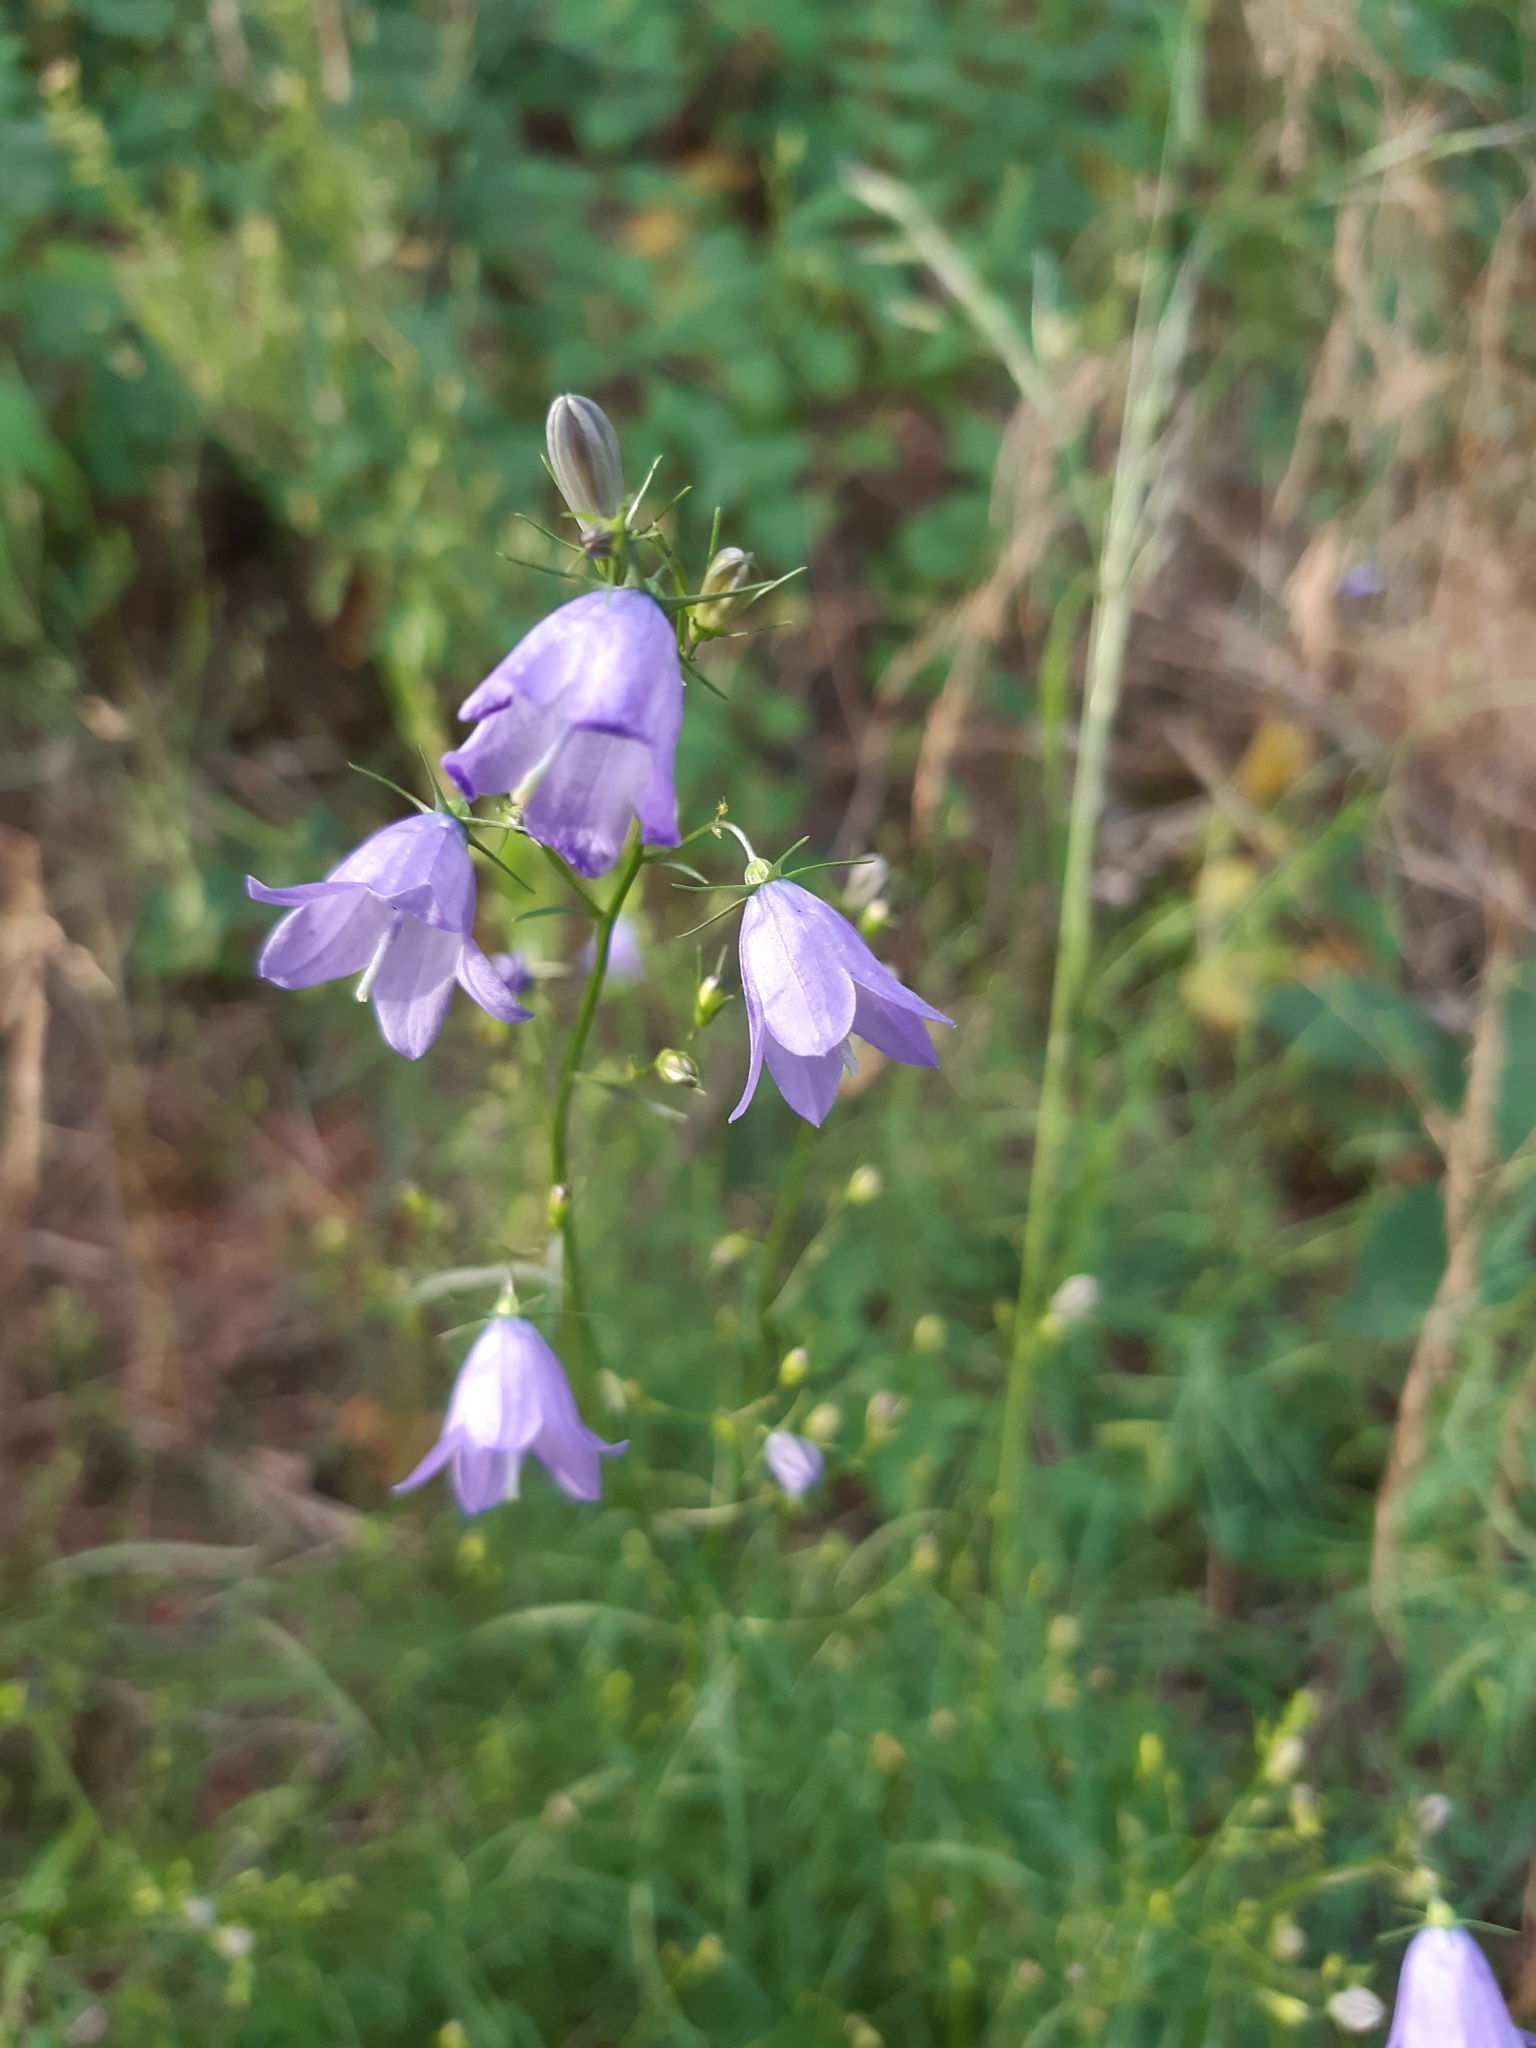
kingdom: Plantae
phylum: Tracheophyta
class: Magnoliopsida
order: Asterales
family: Campanulaceae
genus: Campanula
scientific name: Campanula rotundifolia
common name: Harebell
